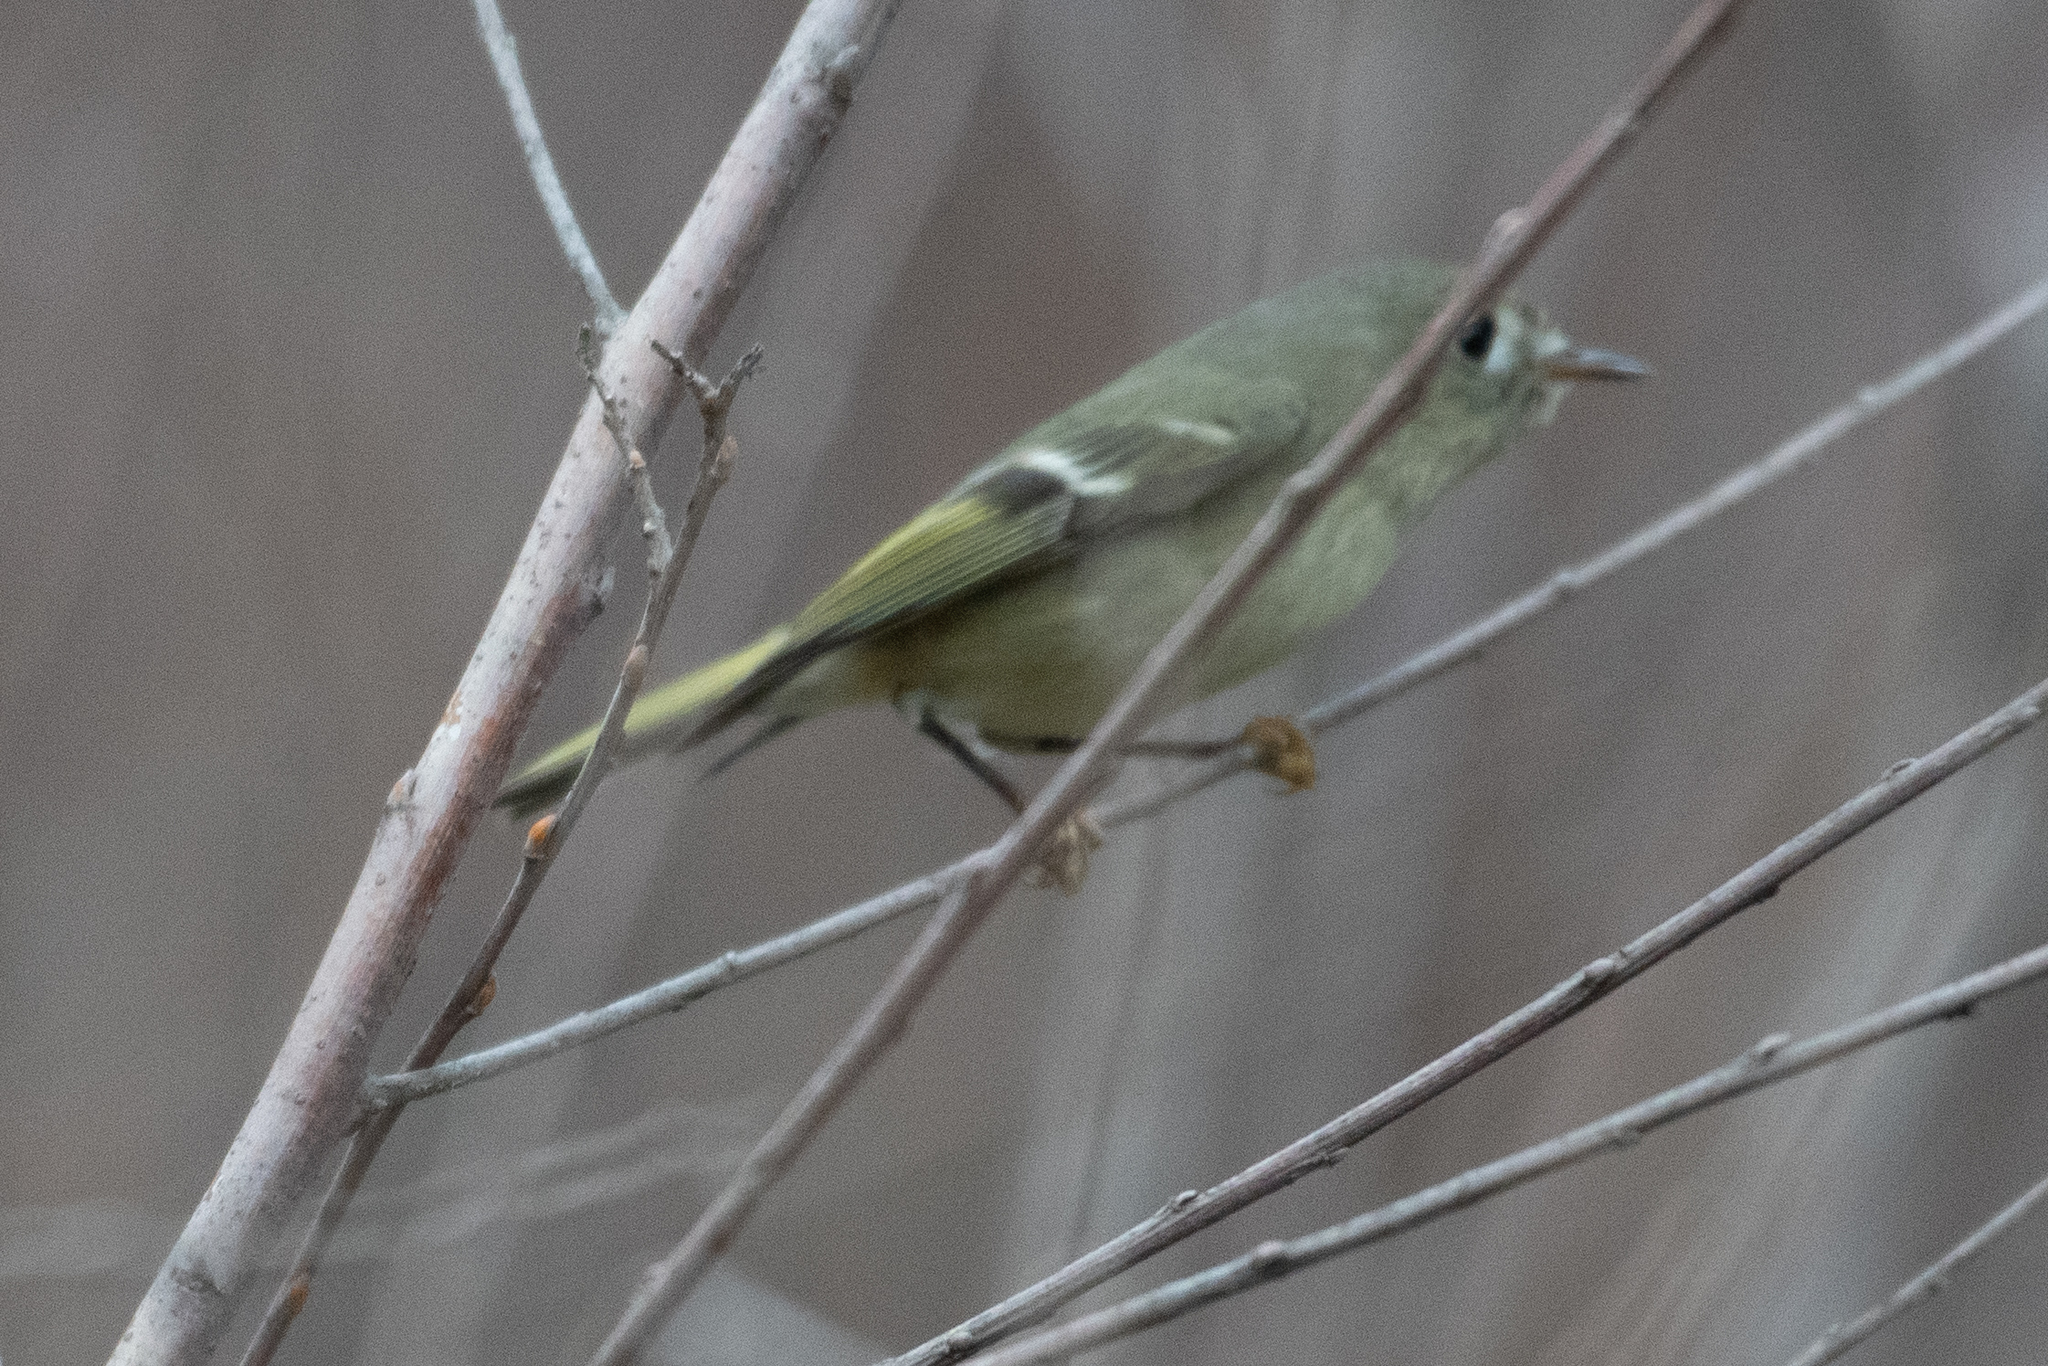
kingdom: Animalia
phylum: Chordata
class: Aves
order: Passeriformes
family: Regulidae
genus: Regulus
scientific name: Regulus calendula
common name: Ruby-crowned kinglet
